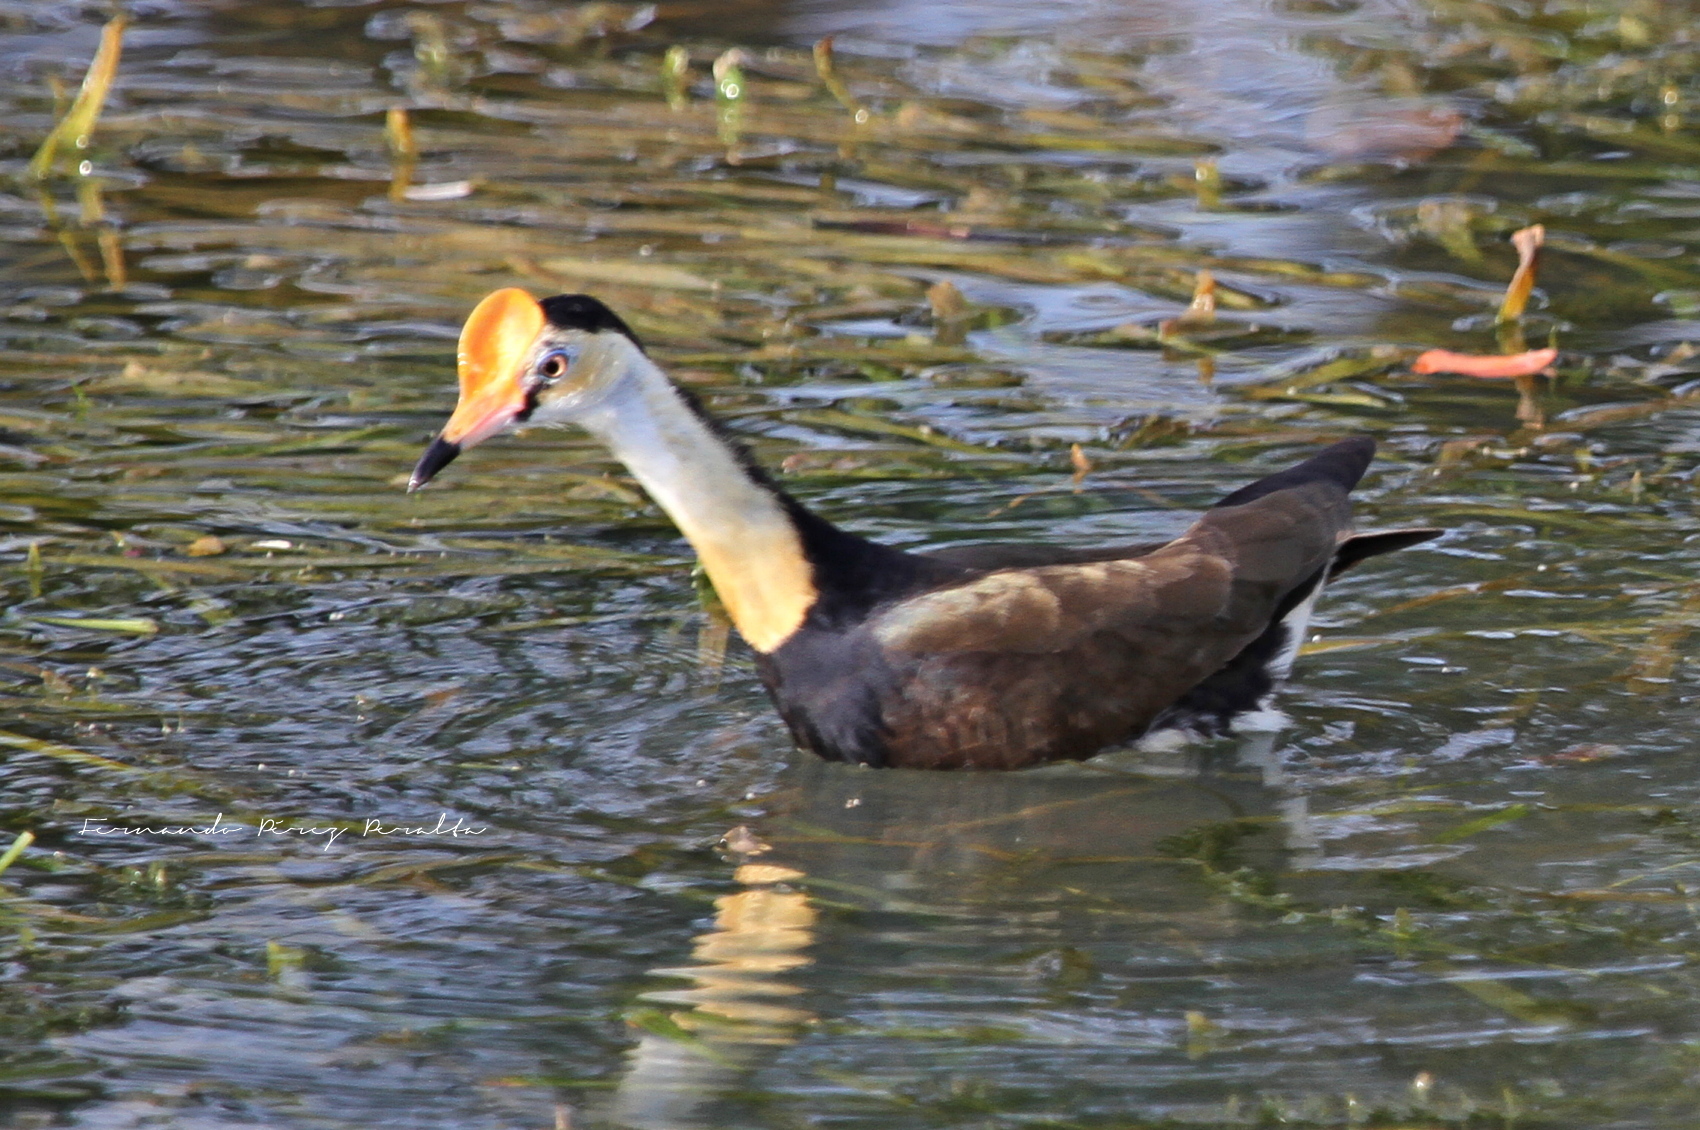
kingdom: Animalia
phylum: Chordata
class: Aves
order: Charadriiformes
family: Jacanidae
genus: Irediparra
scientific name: Irediparra gallinacea
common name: Comb-crested jacana
